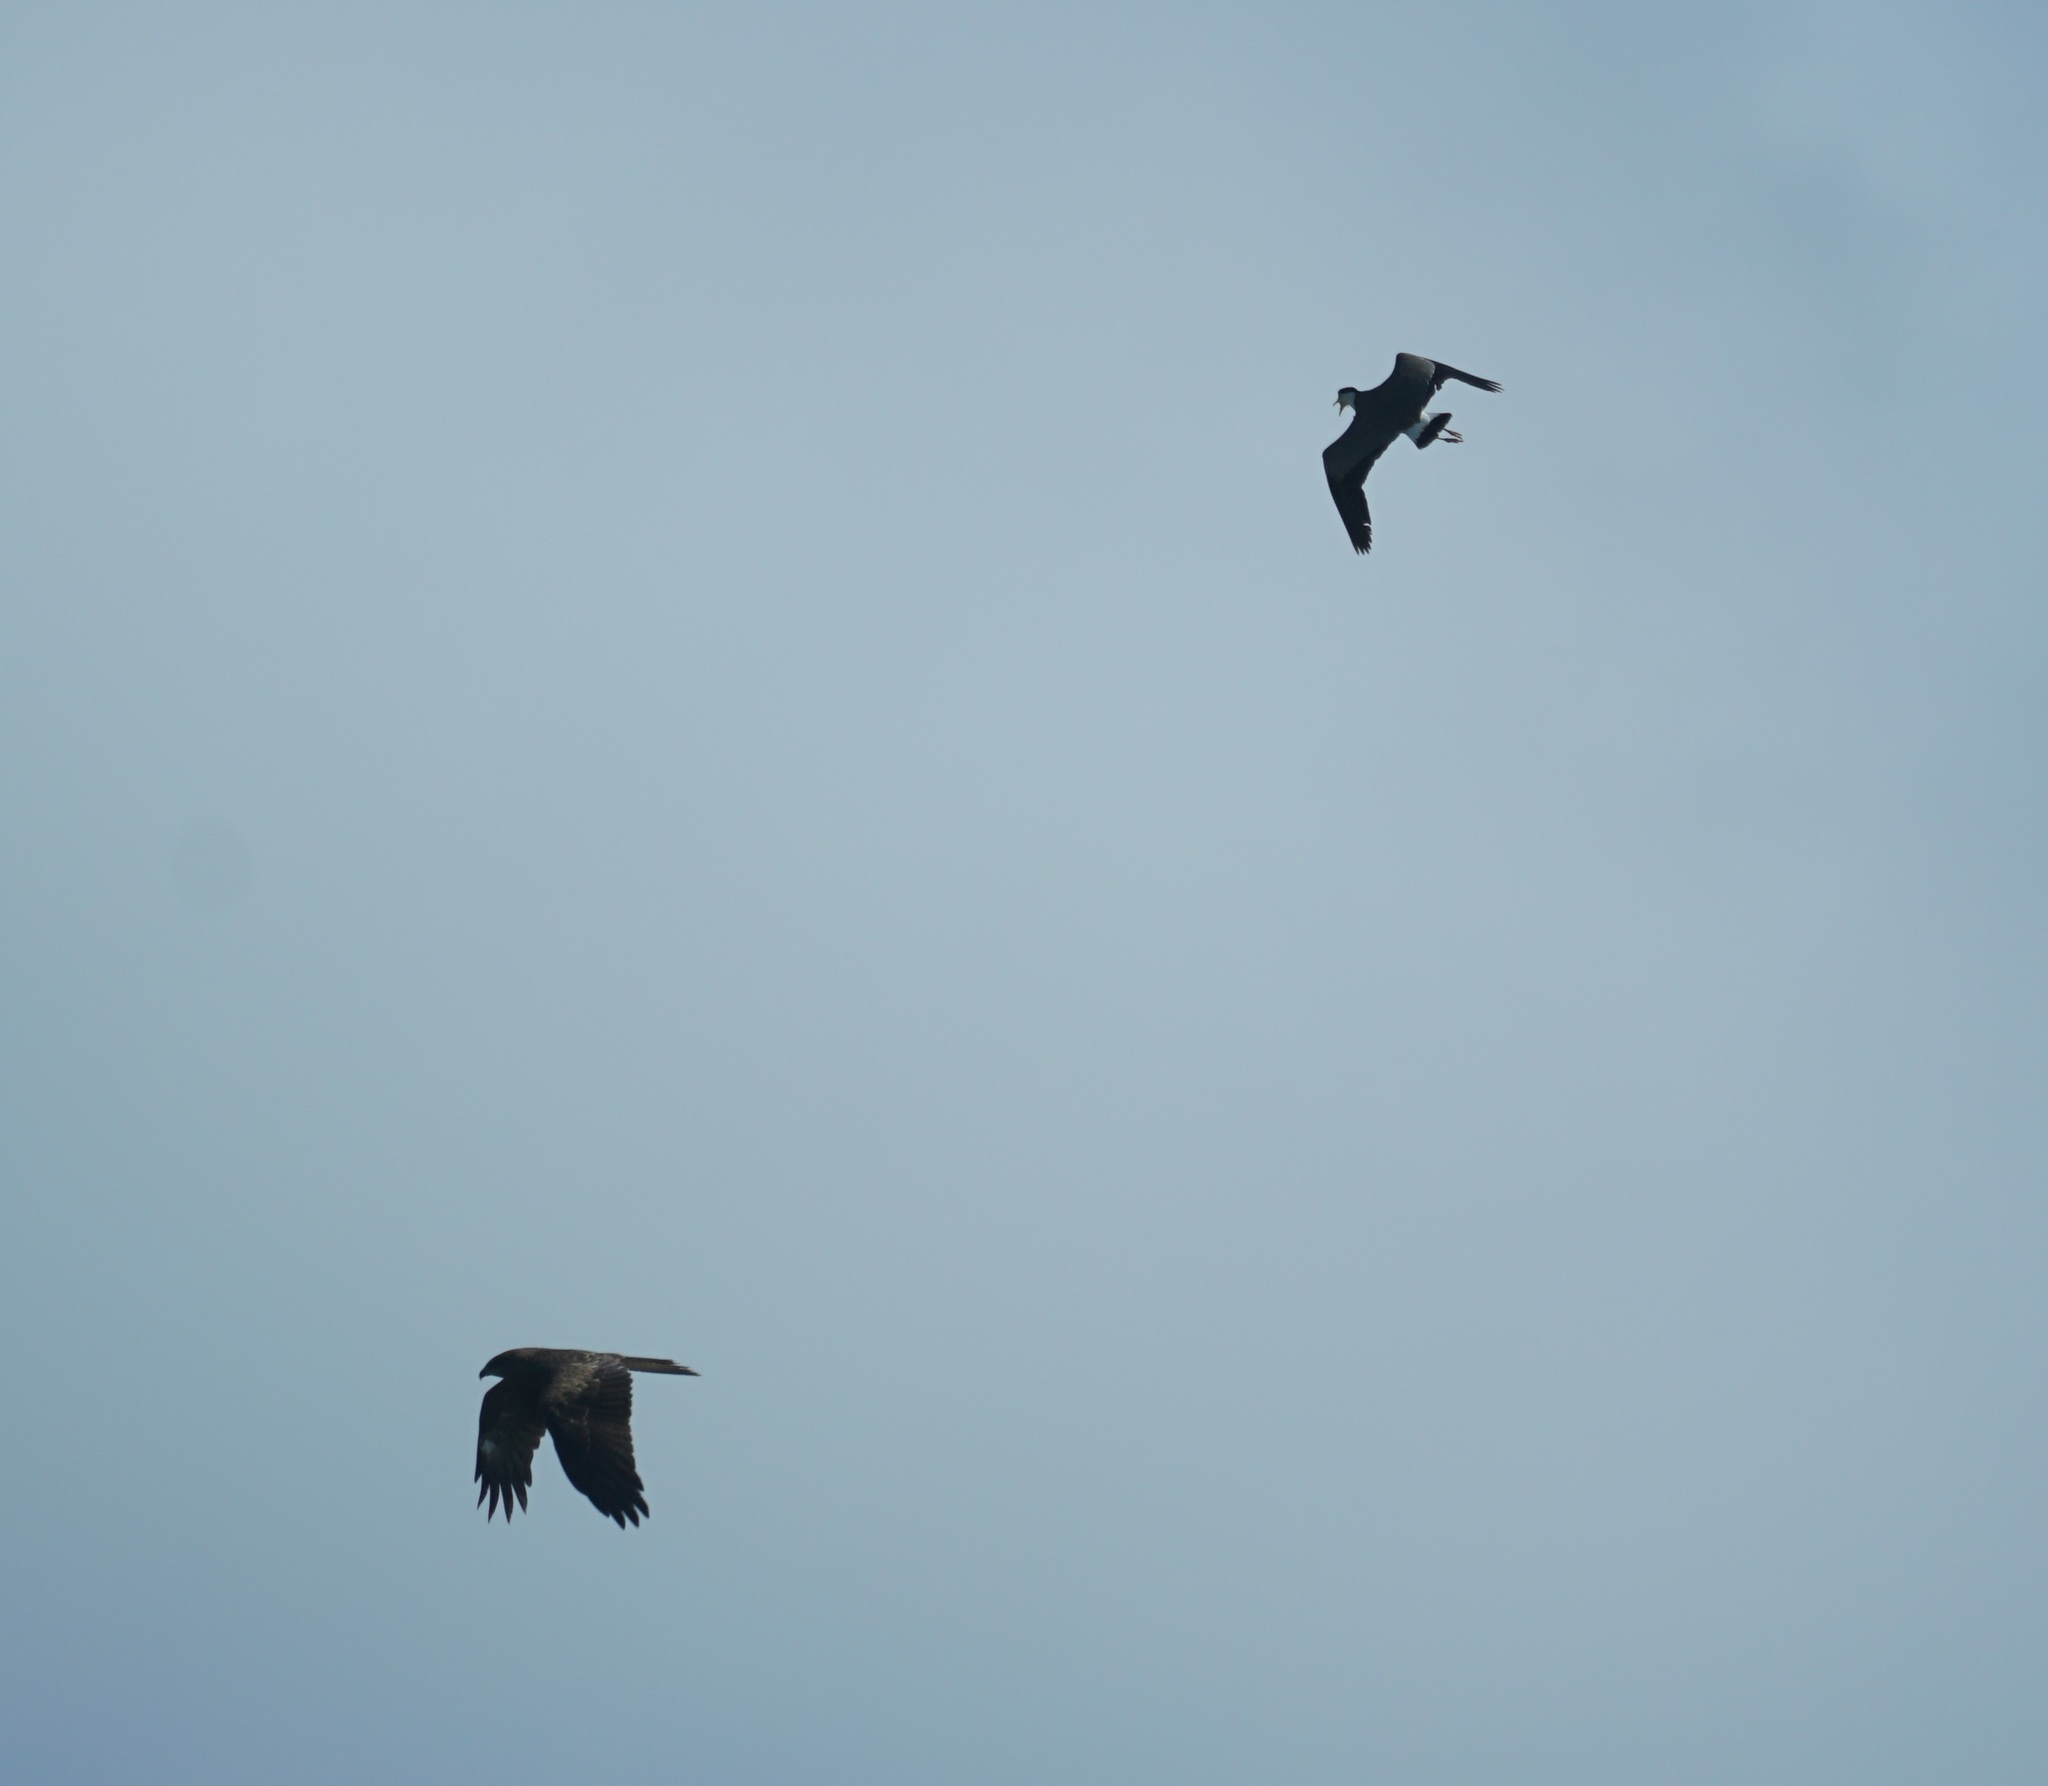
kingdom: Animalia
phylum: Chordata
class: Aves
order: Accipitriformes
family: Accipitridae
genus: Milvus
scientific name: Milvus migrans
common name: Black kite
